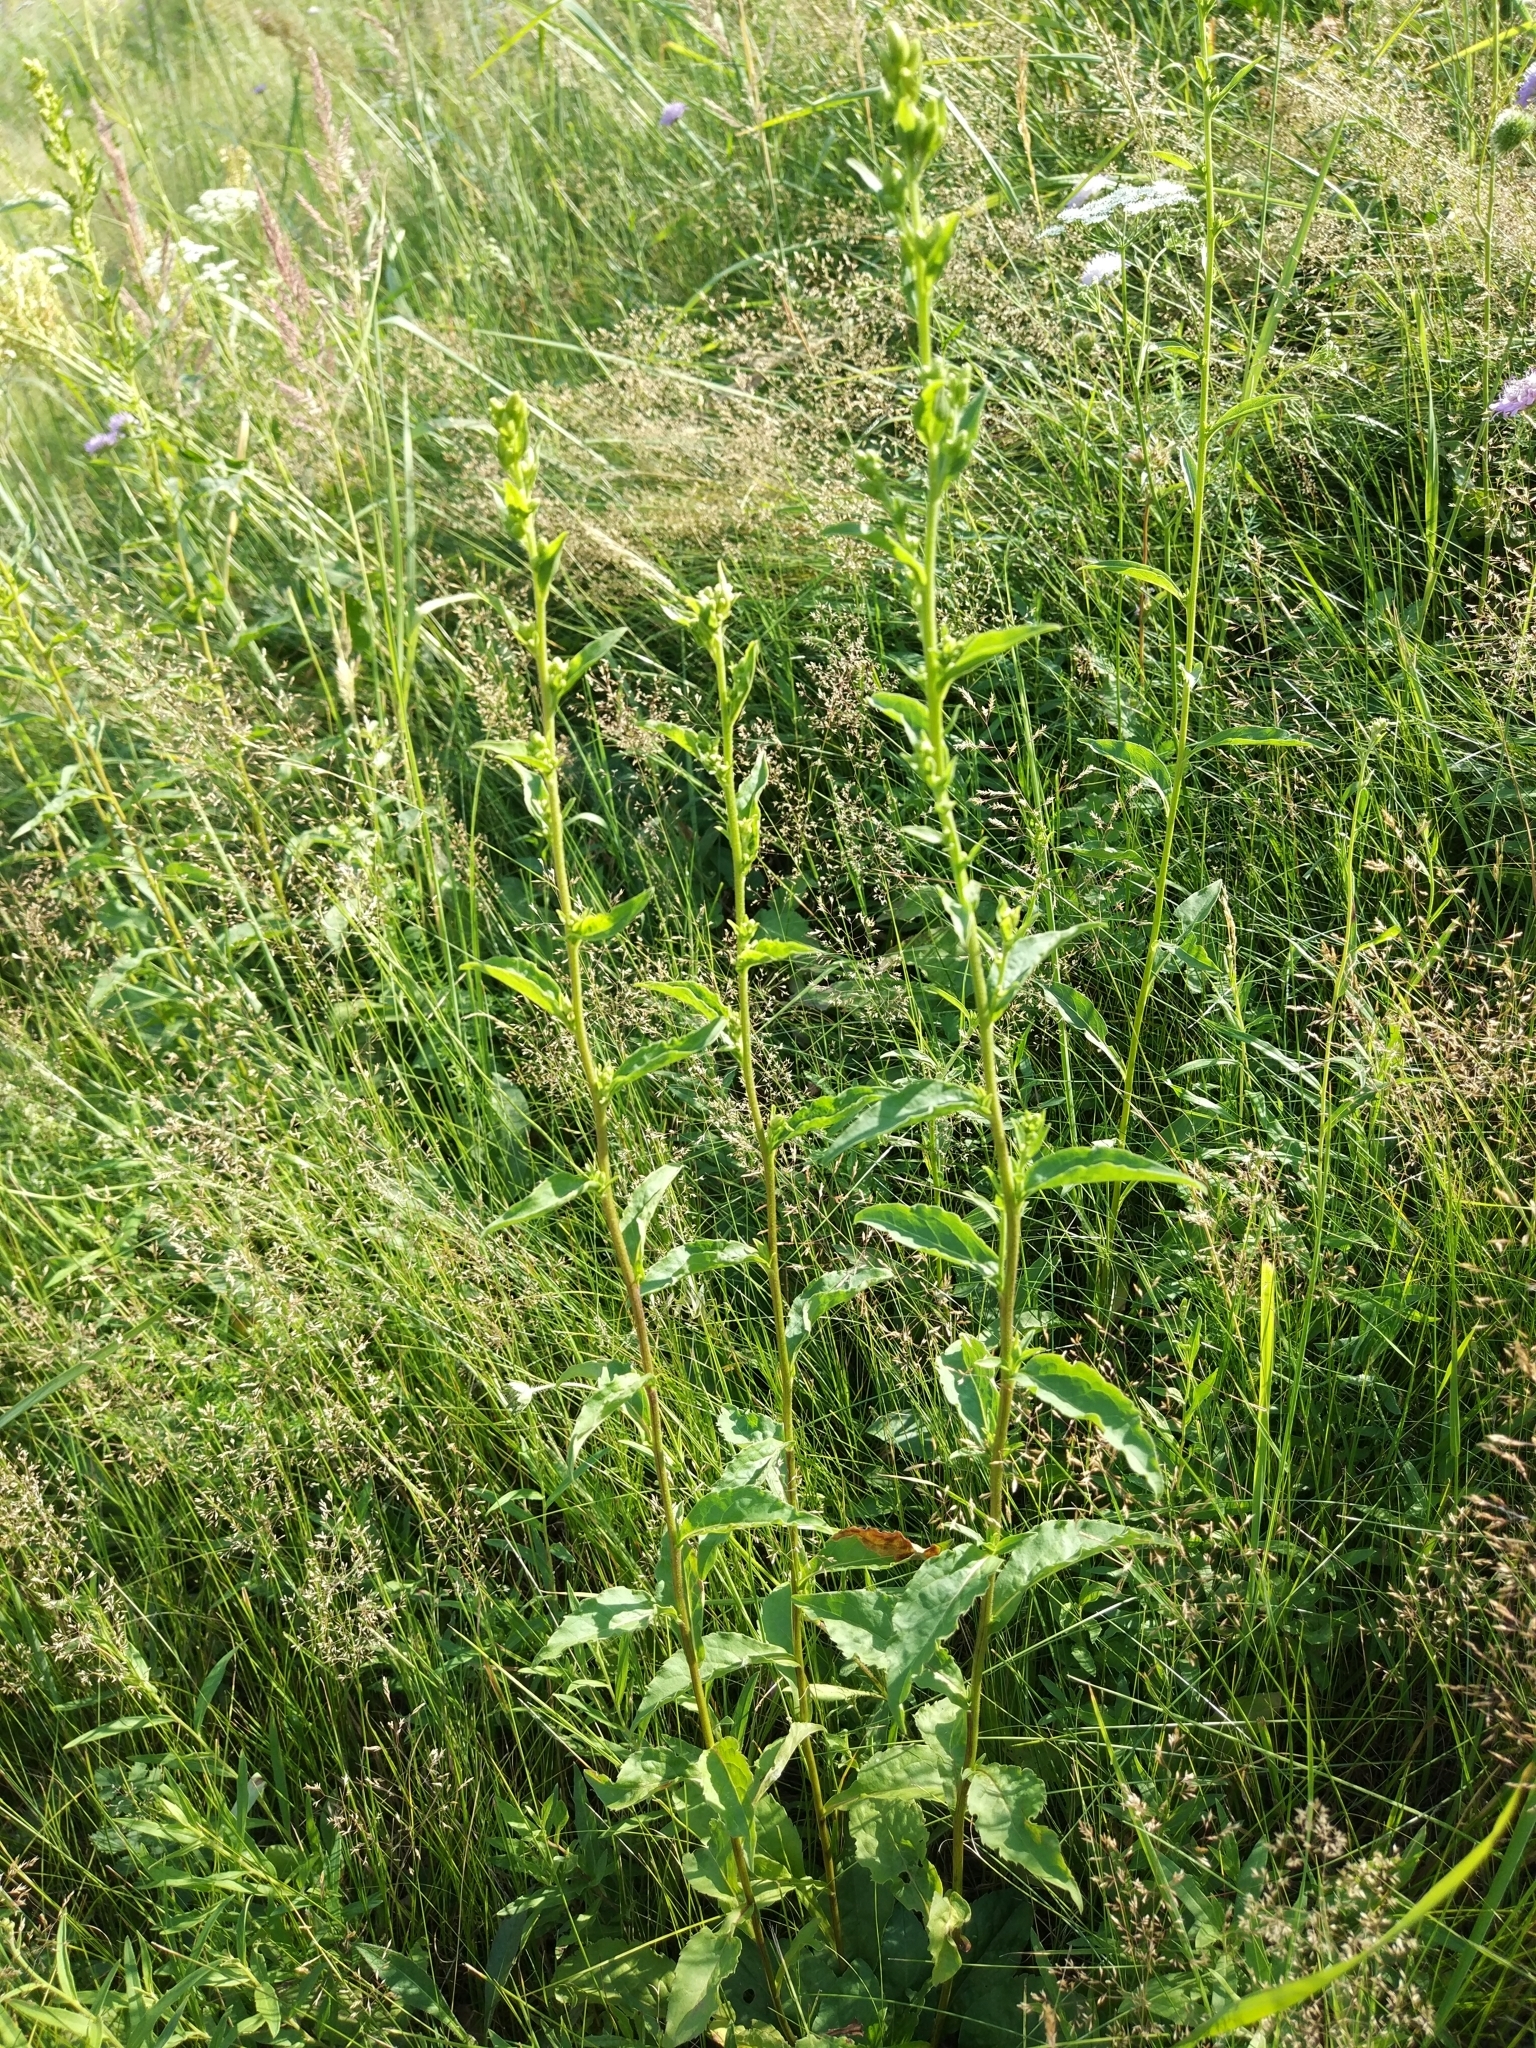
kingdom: Plantae
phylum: Tracheophyta
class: Magnoliopsida
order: Asterales
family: Asteraceae
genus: Solidago
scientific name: Solidago virgaurea
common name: Goldenrod
